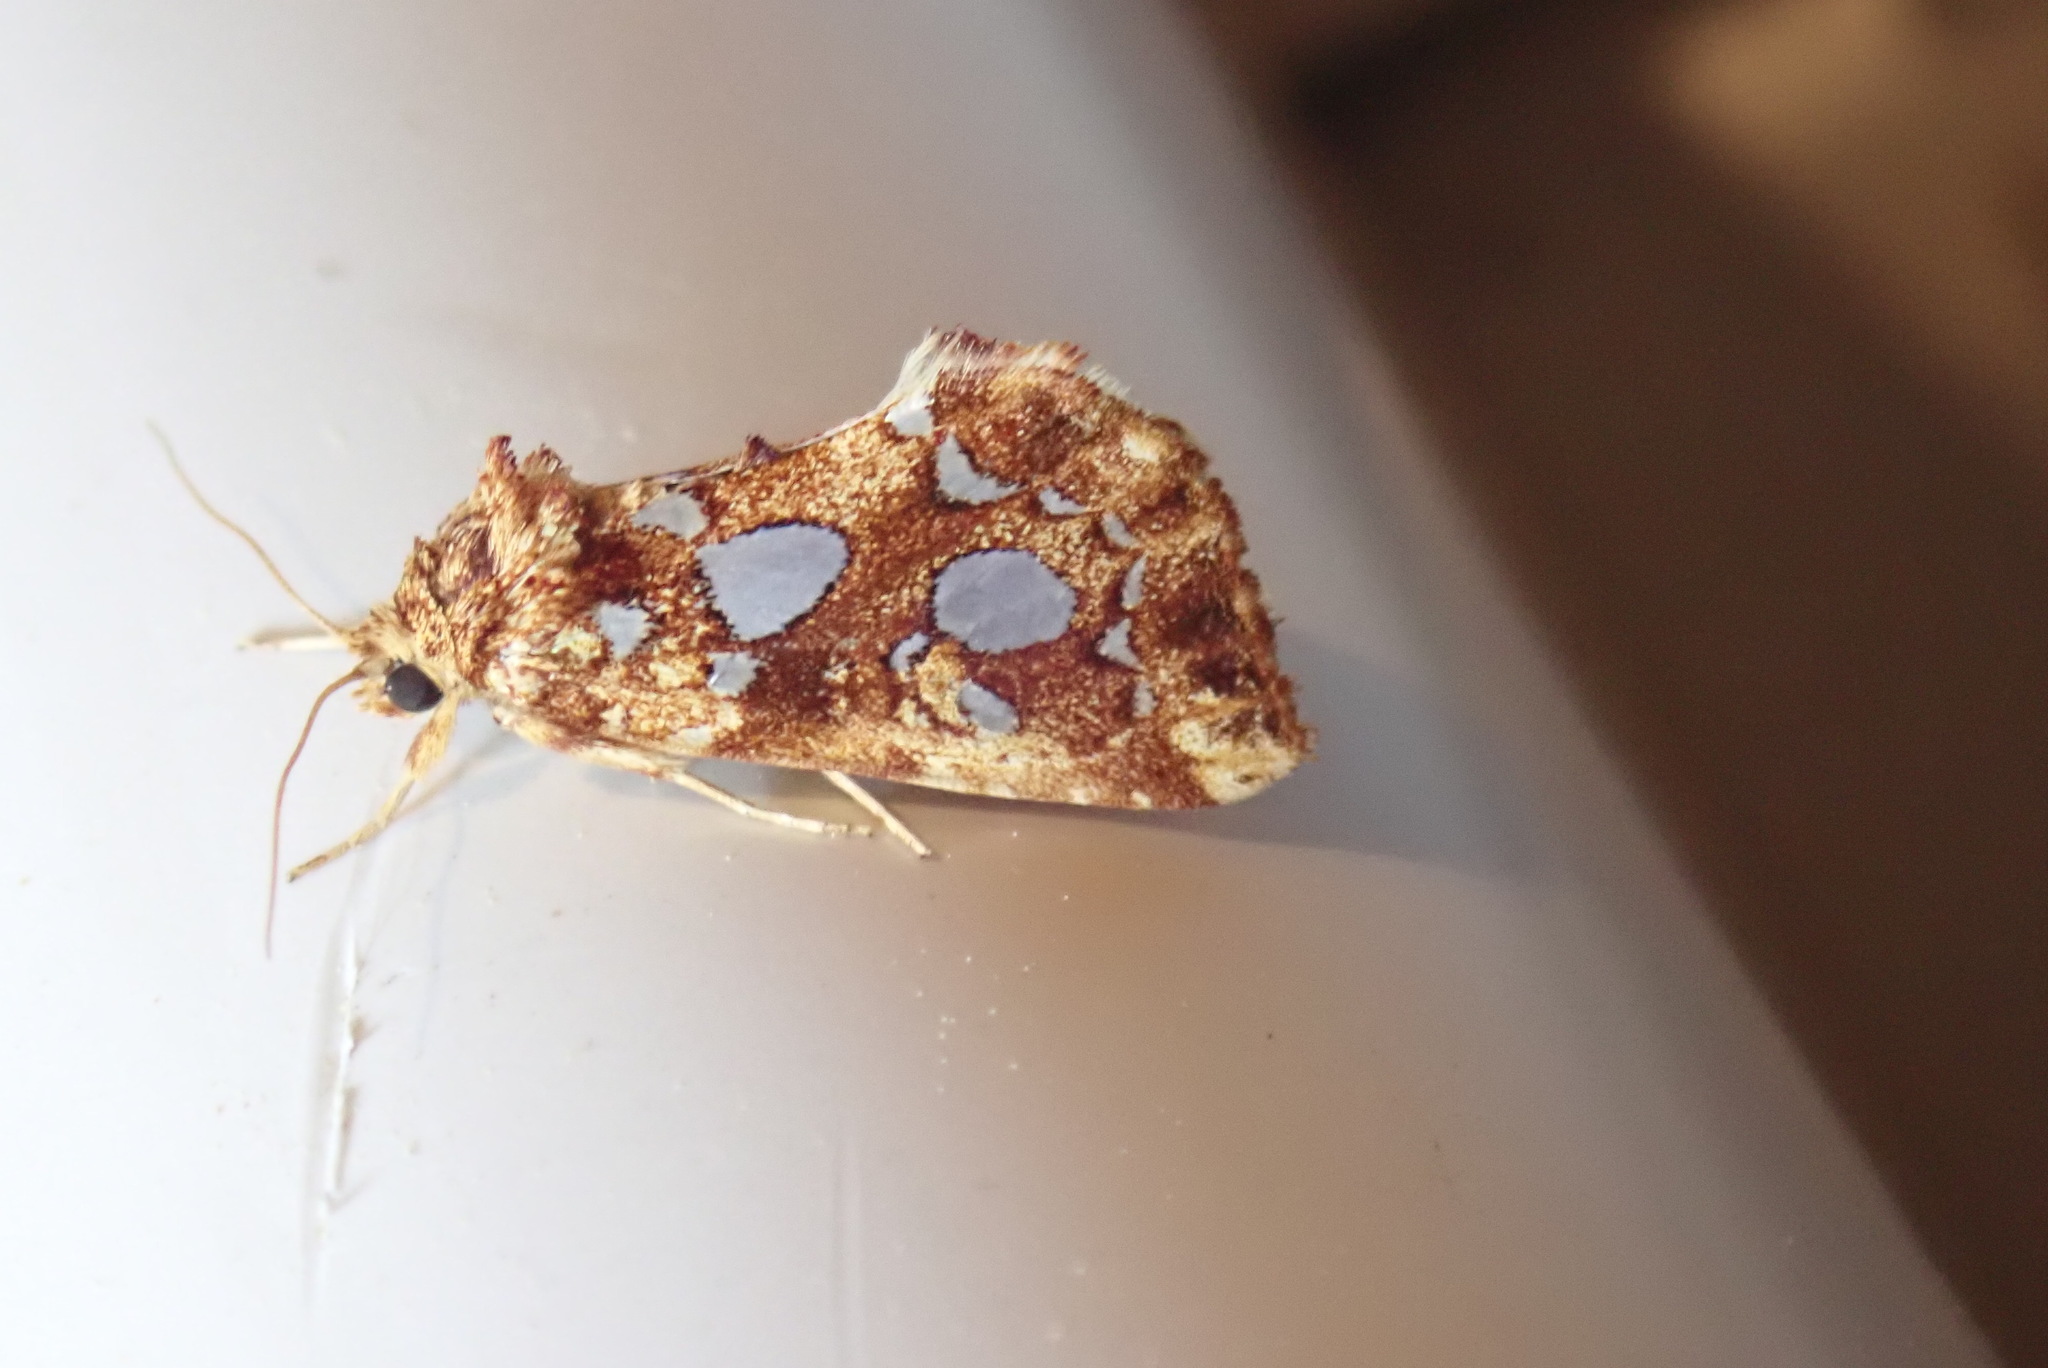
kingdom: Animalia
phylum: Arthropoda
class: Insecta
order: Lepidoptera
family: Noctuidae
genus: Callopistria
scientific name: Callopistria cordata
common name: Silver-spotted fern moth
